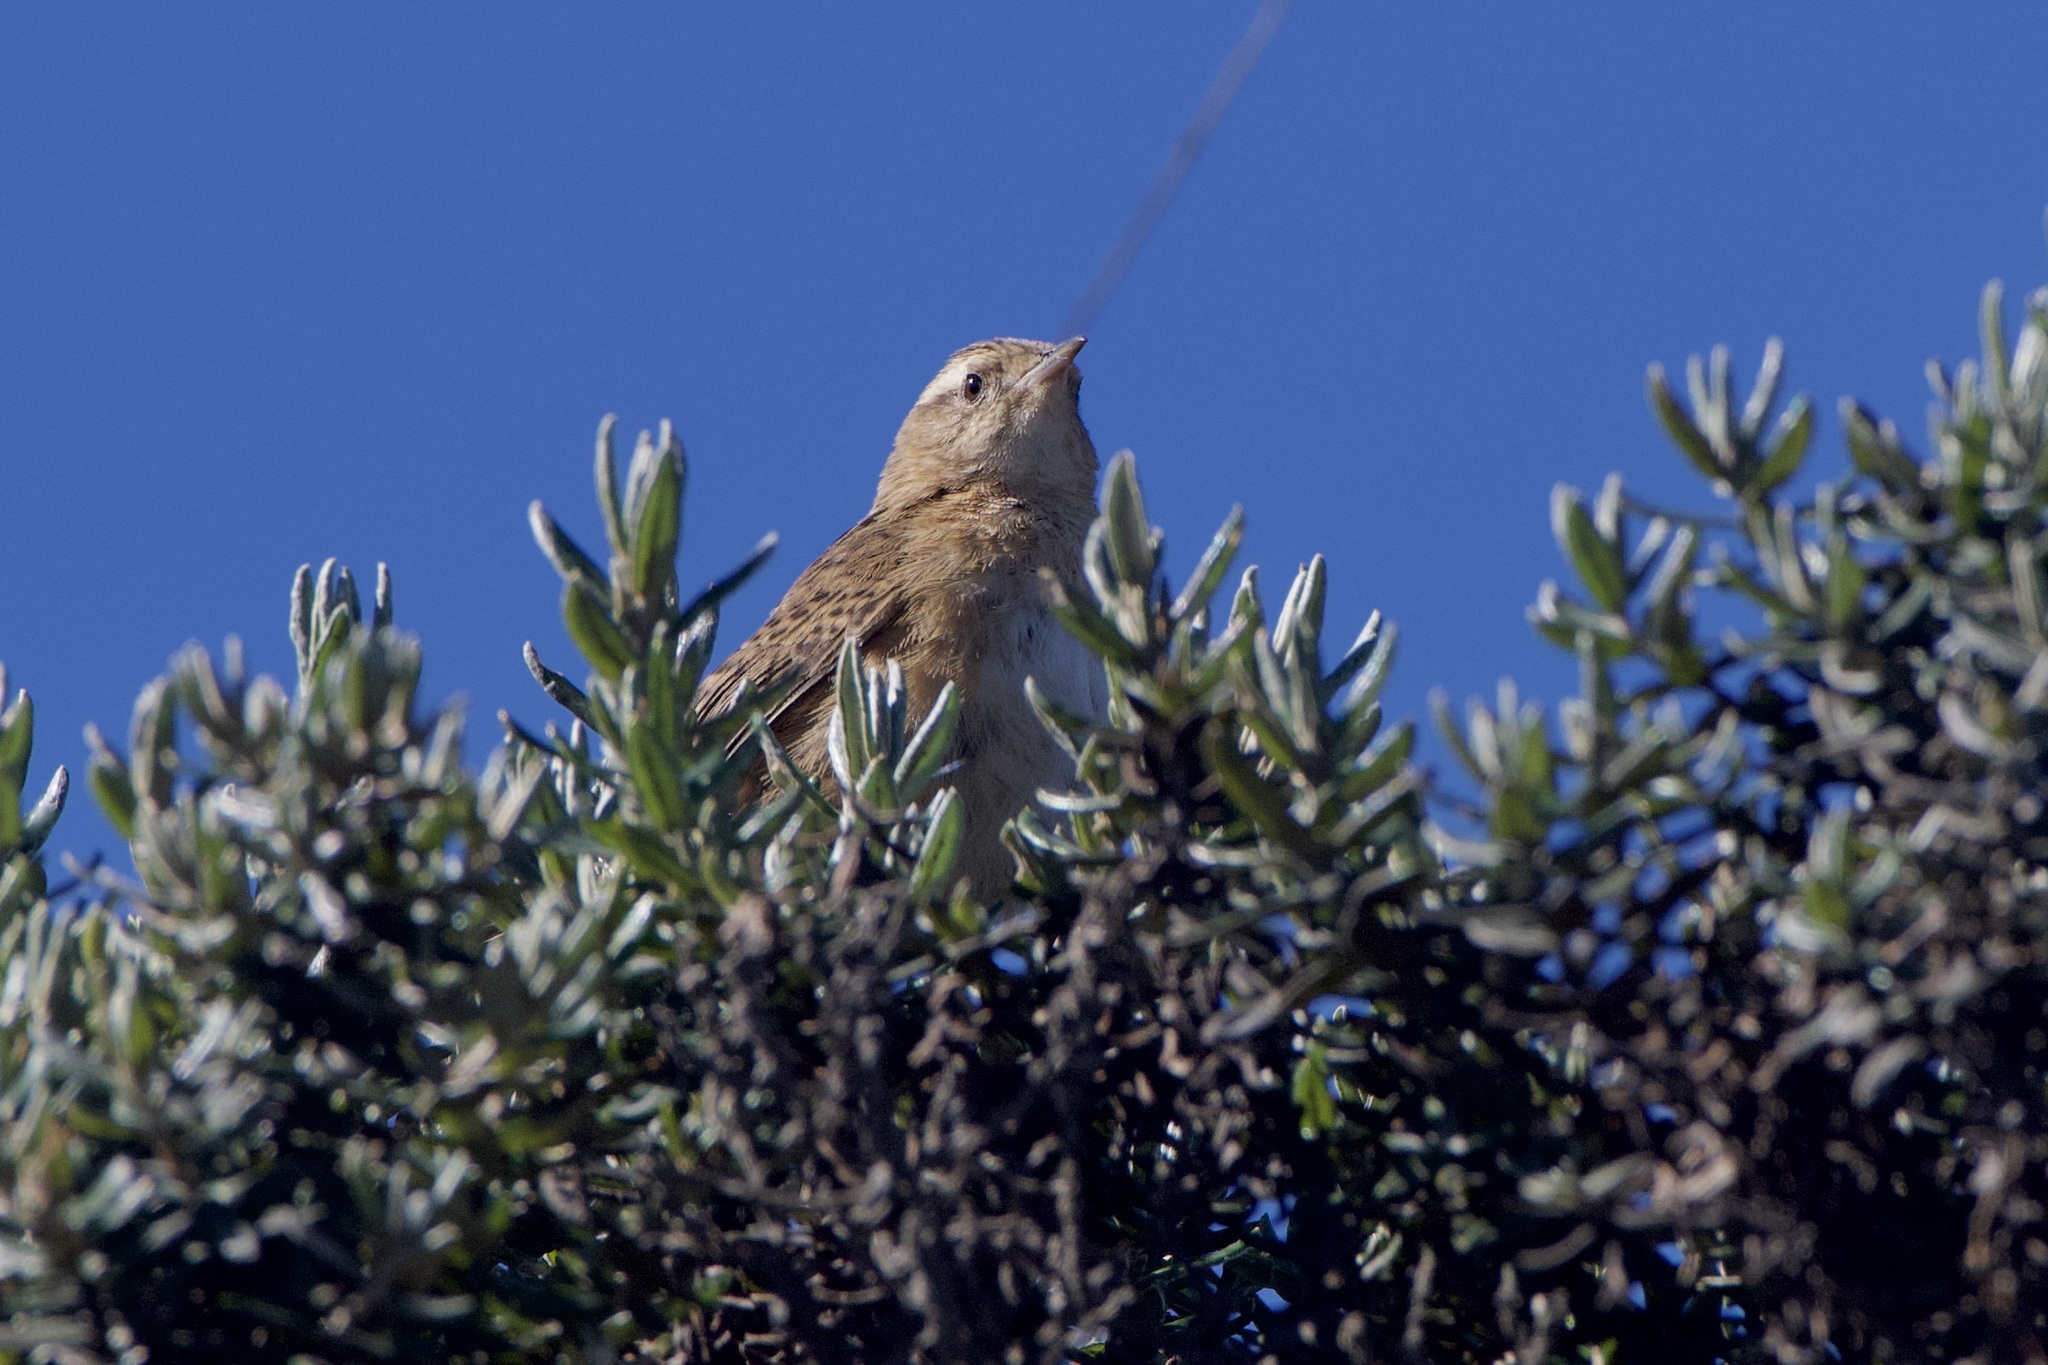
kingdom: Animalia
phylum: Chordata
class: Aves
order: Passeriformes
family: Troglodytidae
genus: Cistothorus
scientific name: Cistothorus platensis
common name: Sedge wren
